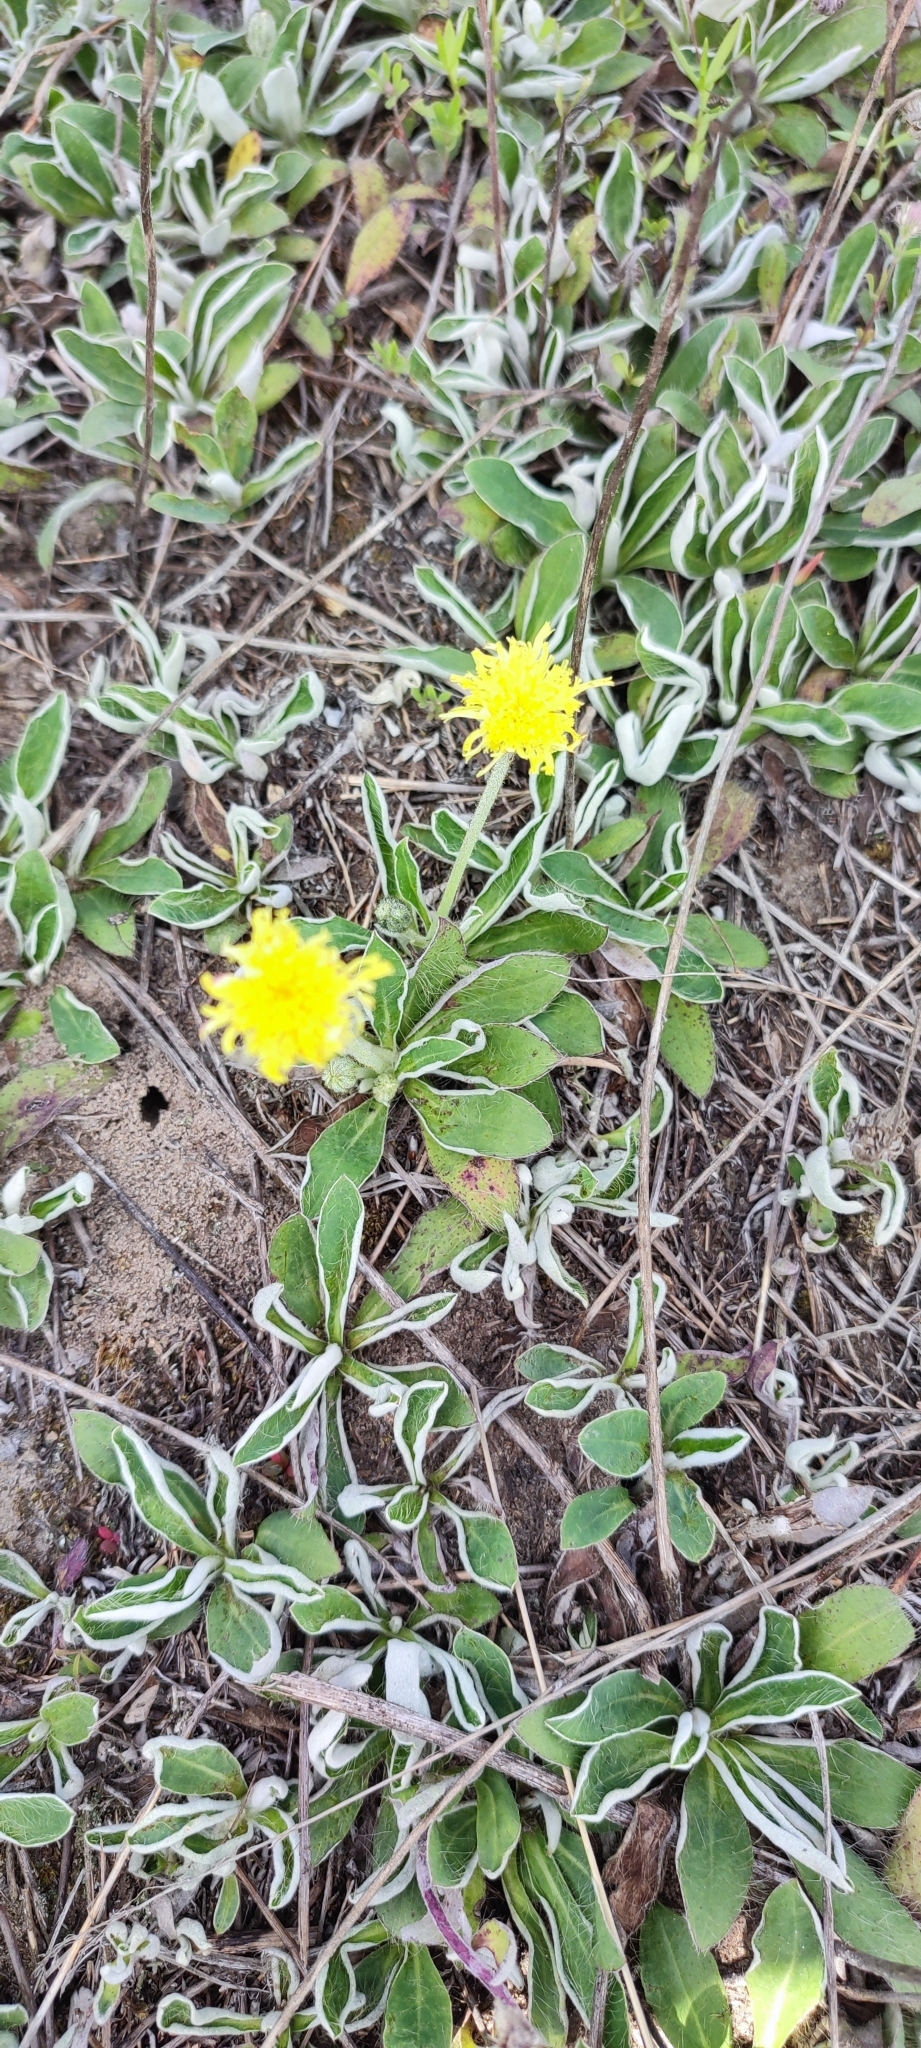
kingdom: Plantae
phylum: Tracheophyta
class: Magnoliopsida
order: Asterales
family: Asteraceae
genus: Pilosella
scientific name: Pilosella officinarum
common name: Mouse-ear hawkweed
